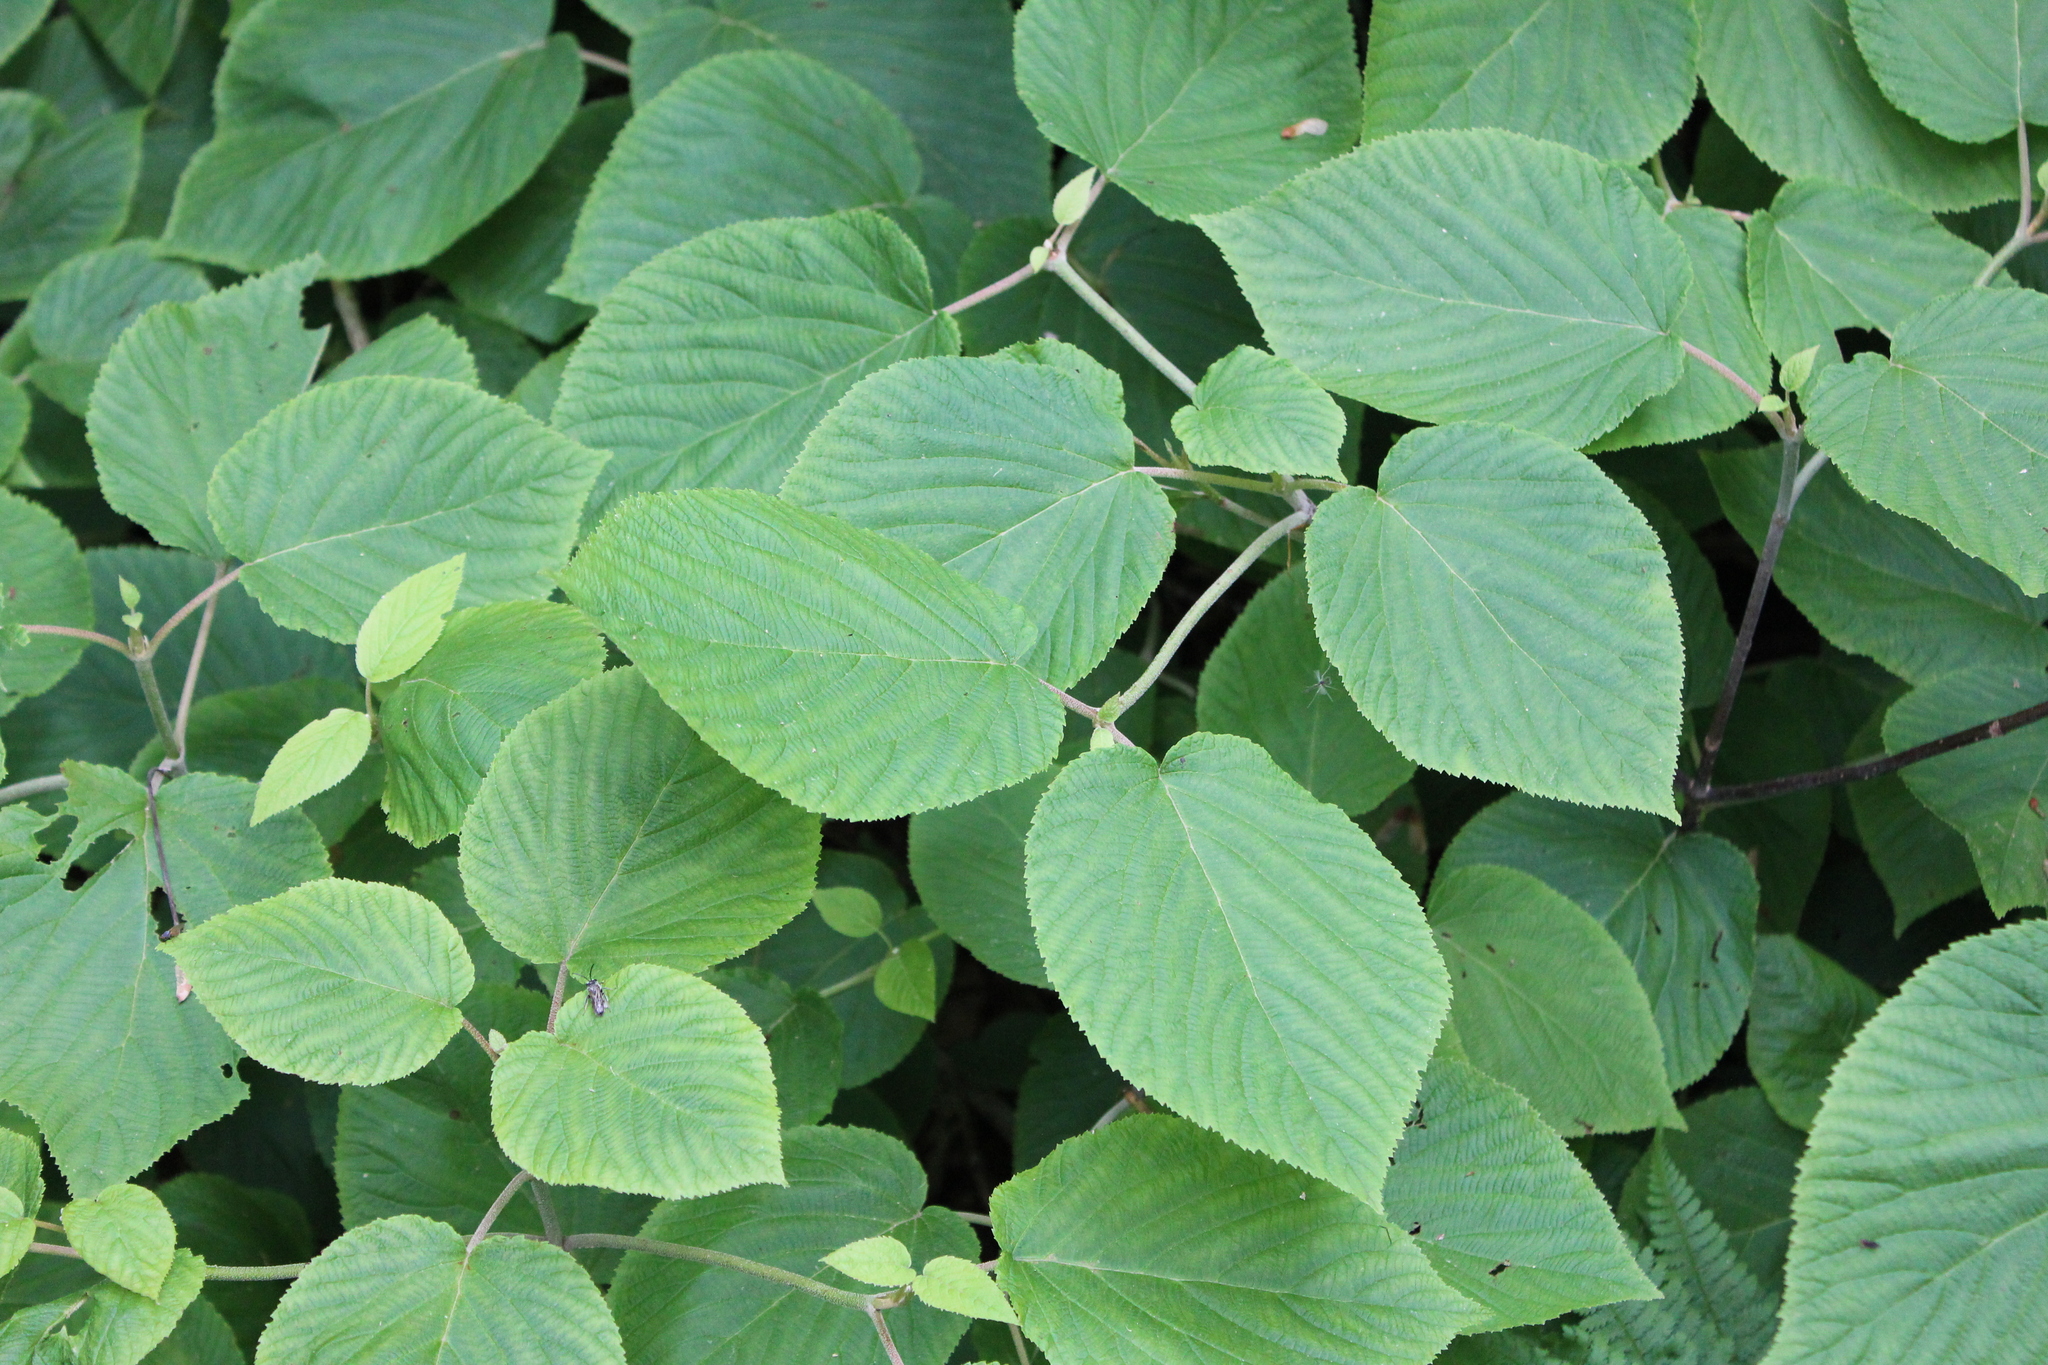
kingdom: Plantae
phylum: Tracheophyta
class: Magnoliopsida
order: Dipsacales
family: Viburnaceae
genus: Viburnum
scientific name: Viburnum lantanoides
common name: Hobblebush
